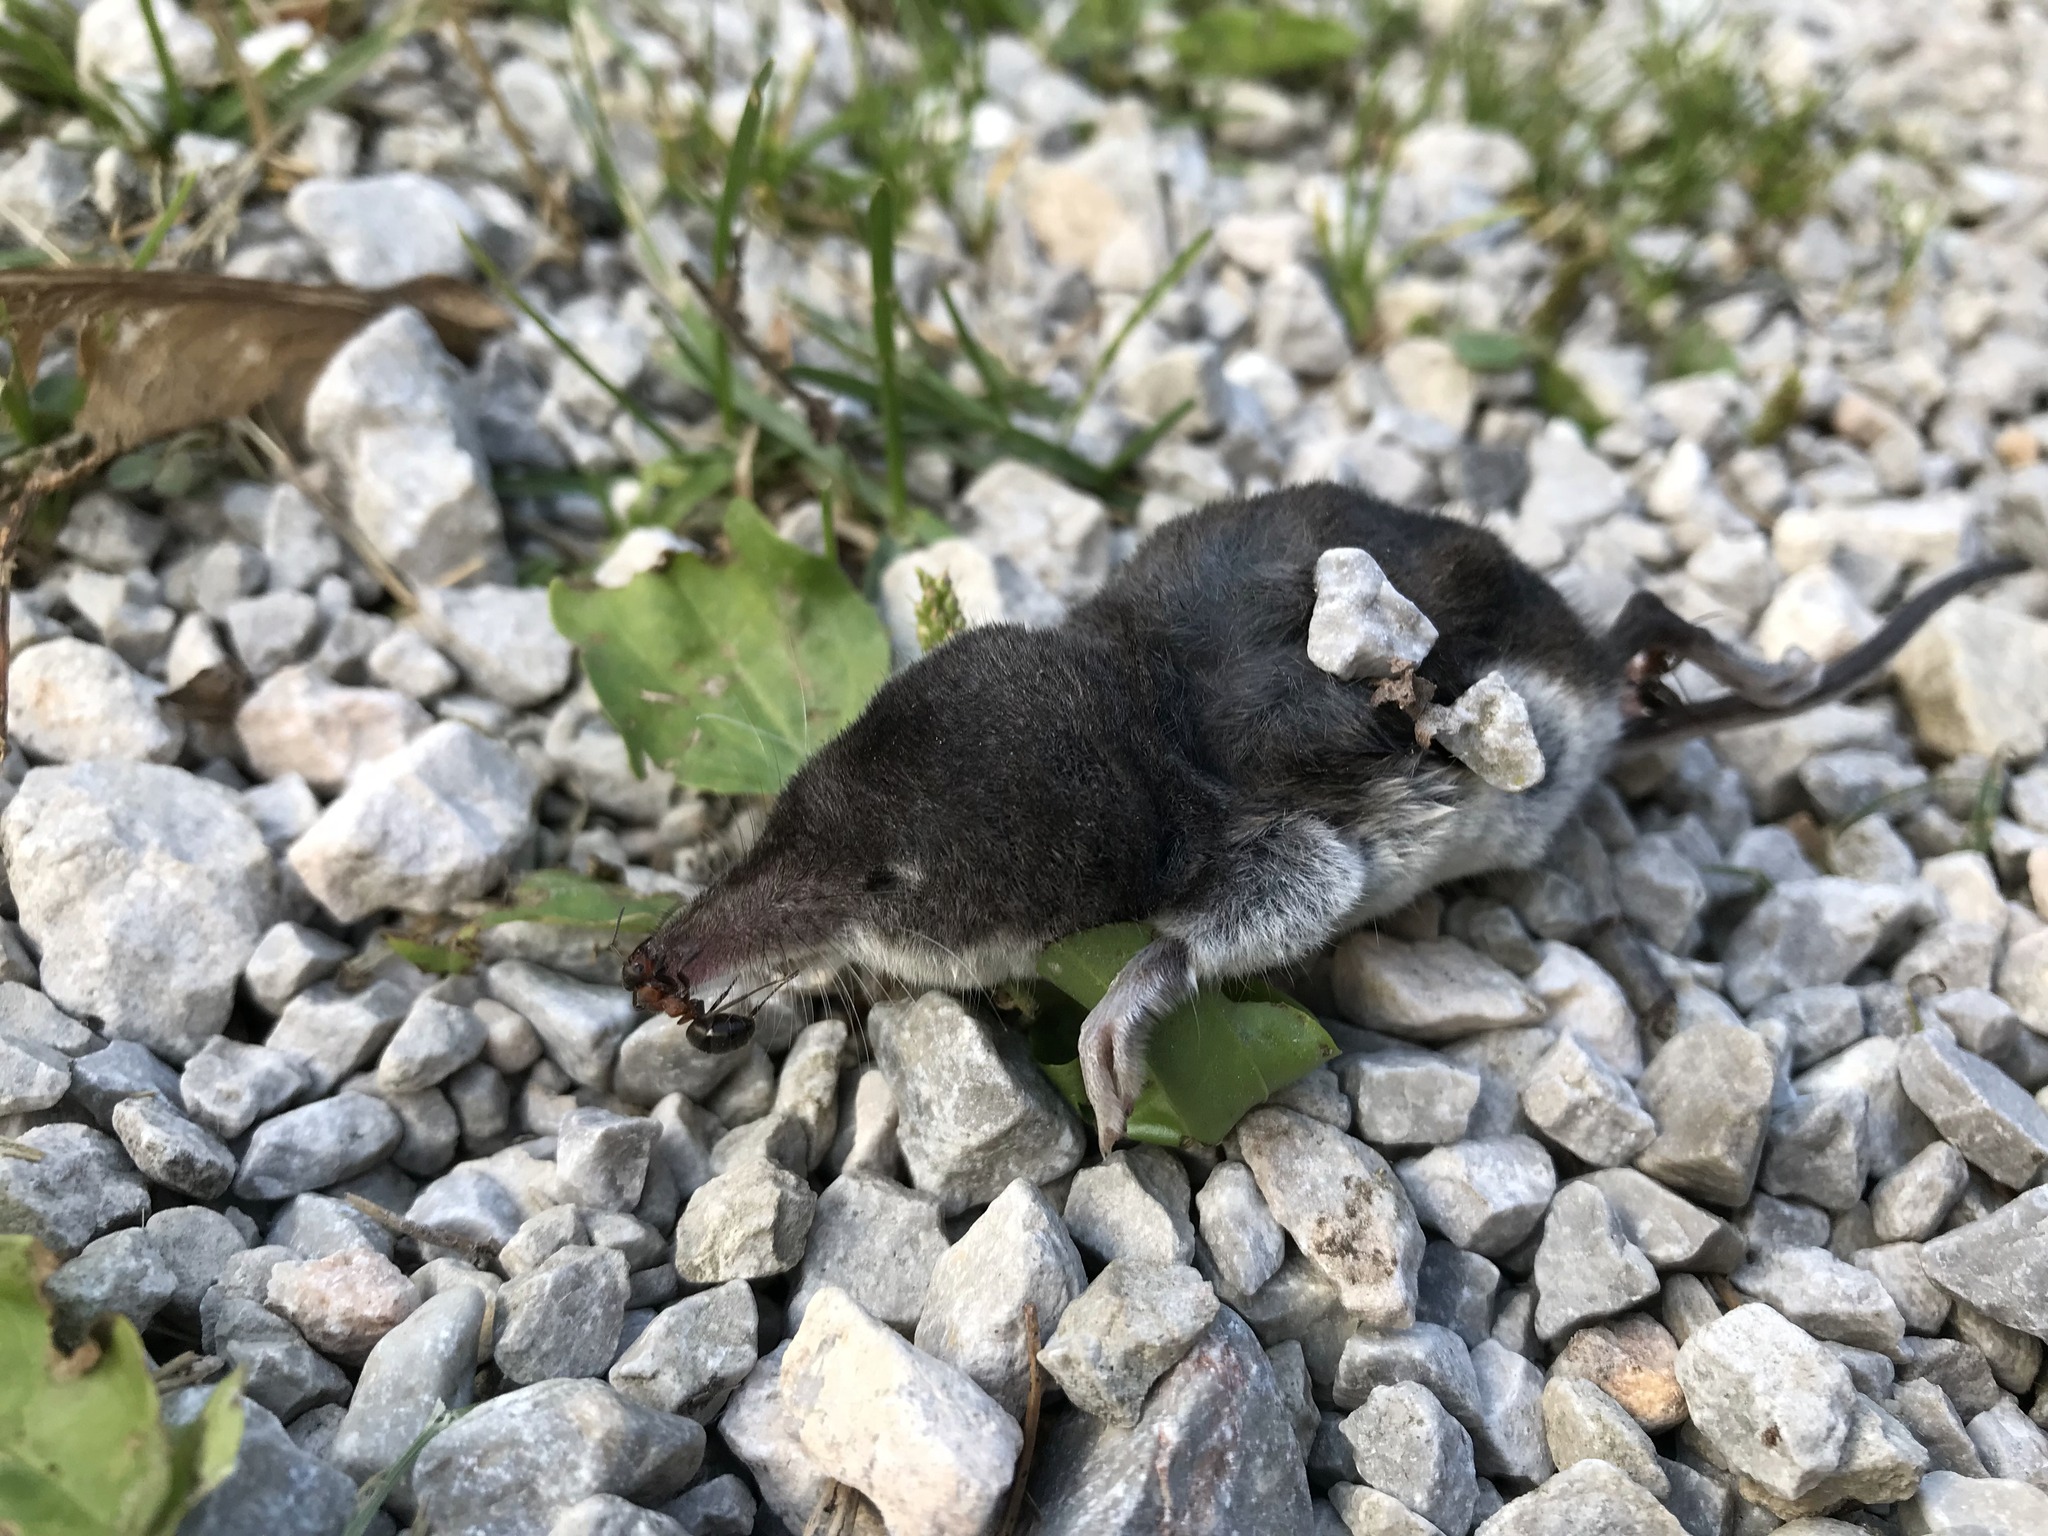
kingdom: Animalia
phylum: Chordata
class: Mammalia
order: Soricomorpha
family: Soricidae
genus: Neomys
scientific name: Neomys fodiens
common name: Eurasian water shrew
